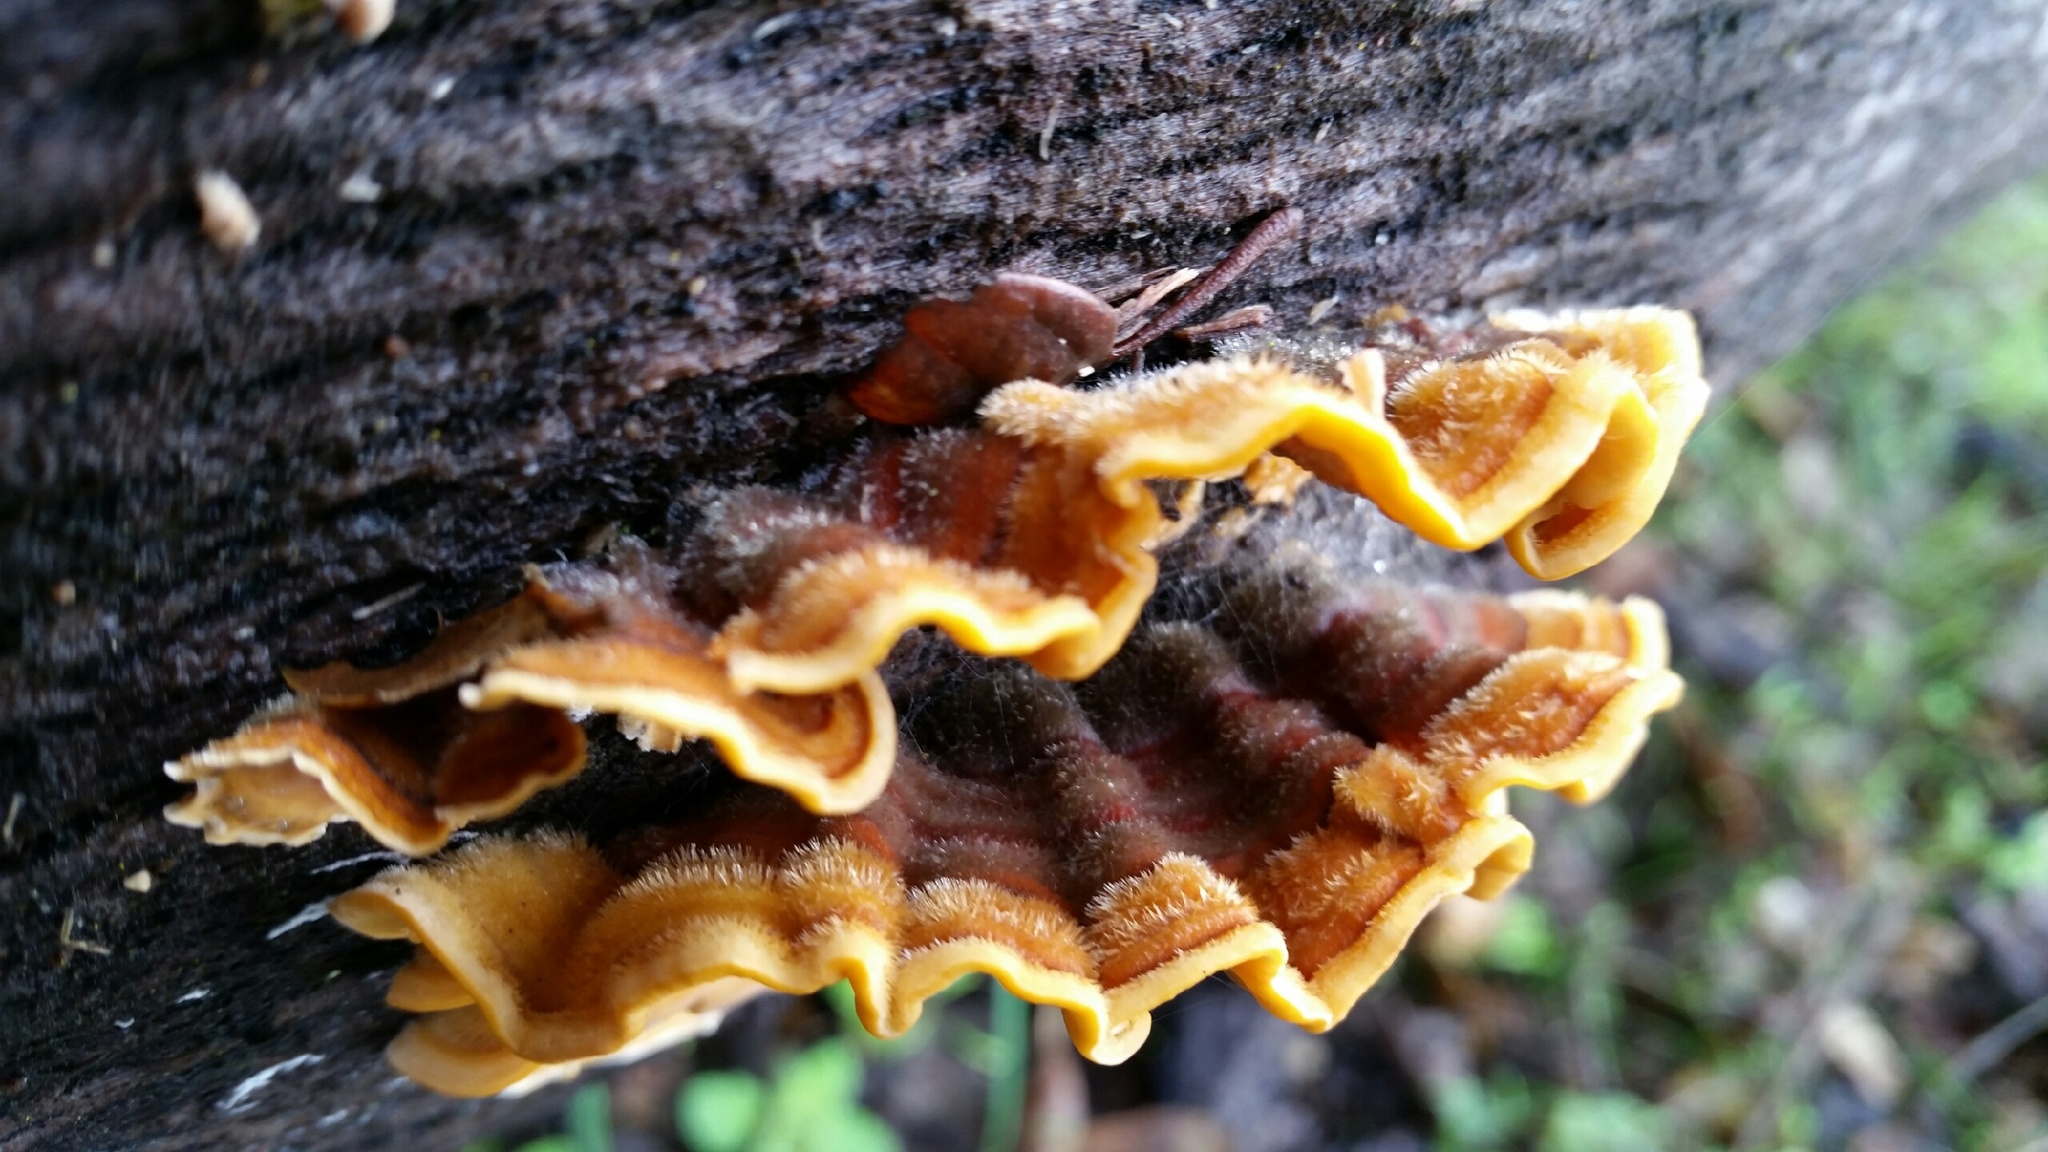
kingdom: Fungi
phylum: Basidiomycota
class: Agaricomycetes
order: Russulales
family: Stereaceae
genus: Stereum
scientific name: Stereum hirsutum
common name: Hairy curtain crust
